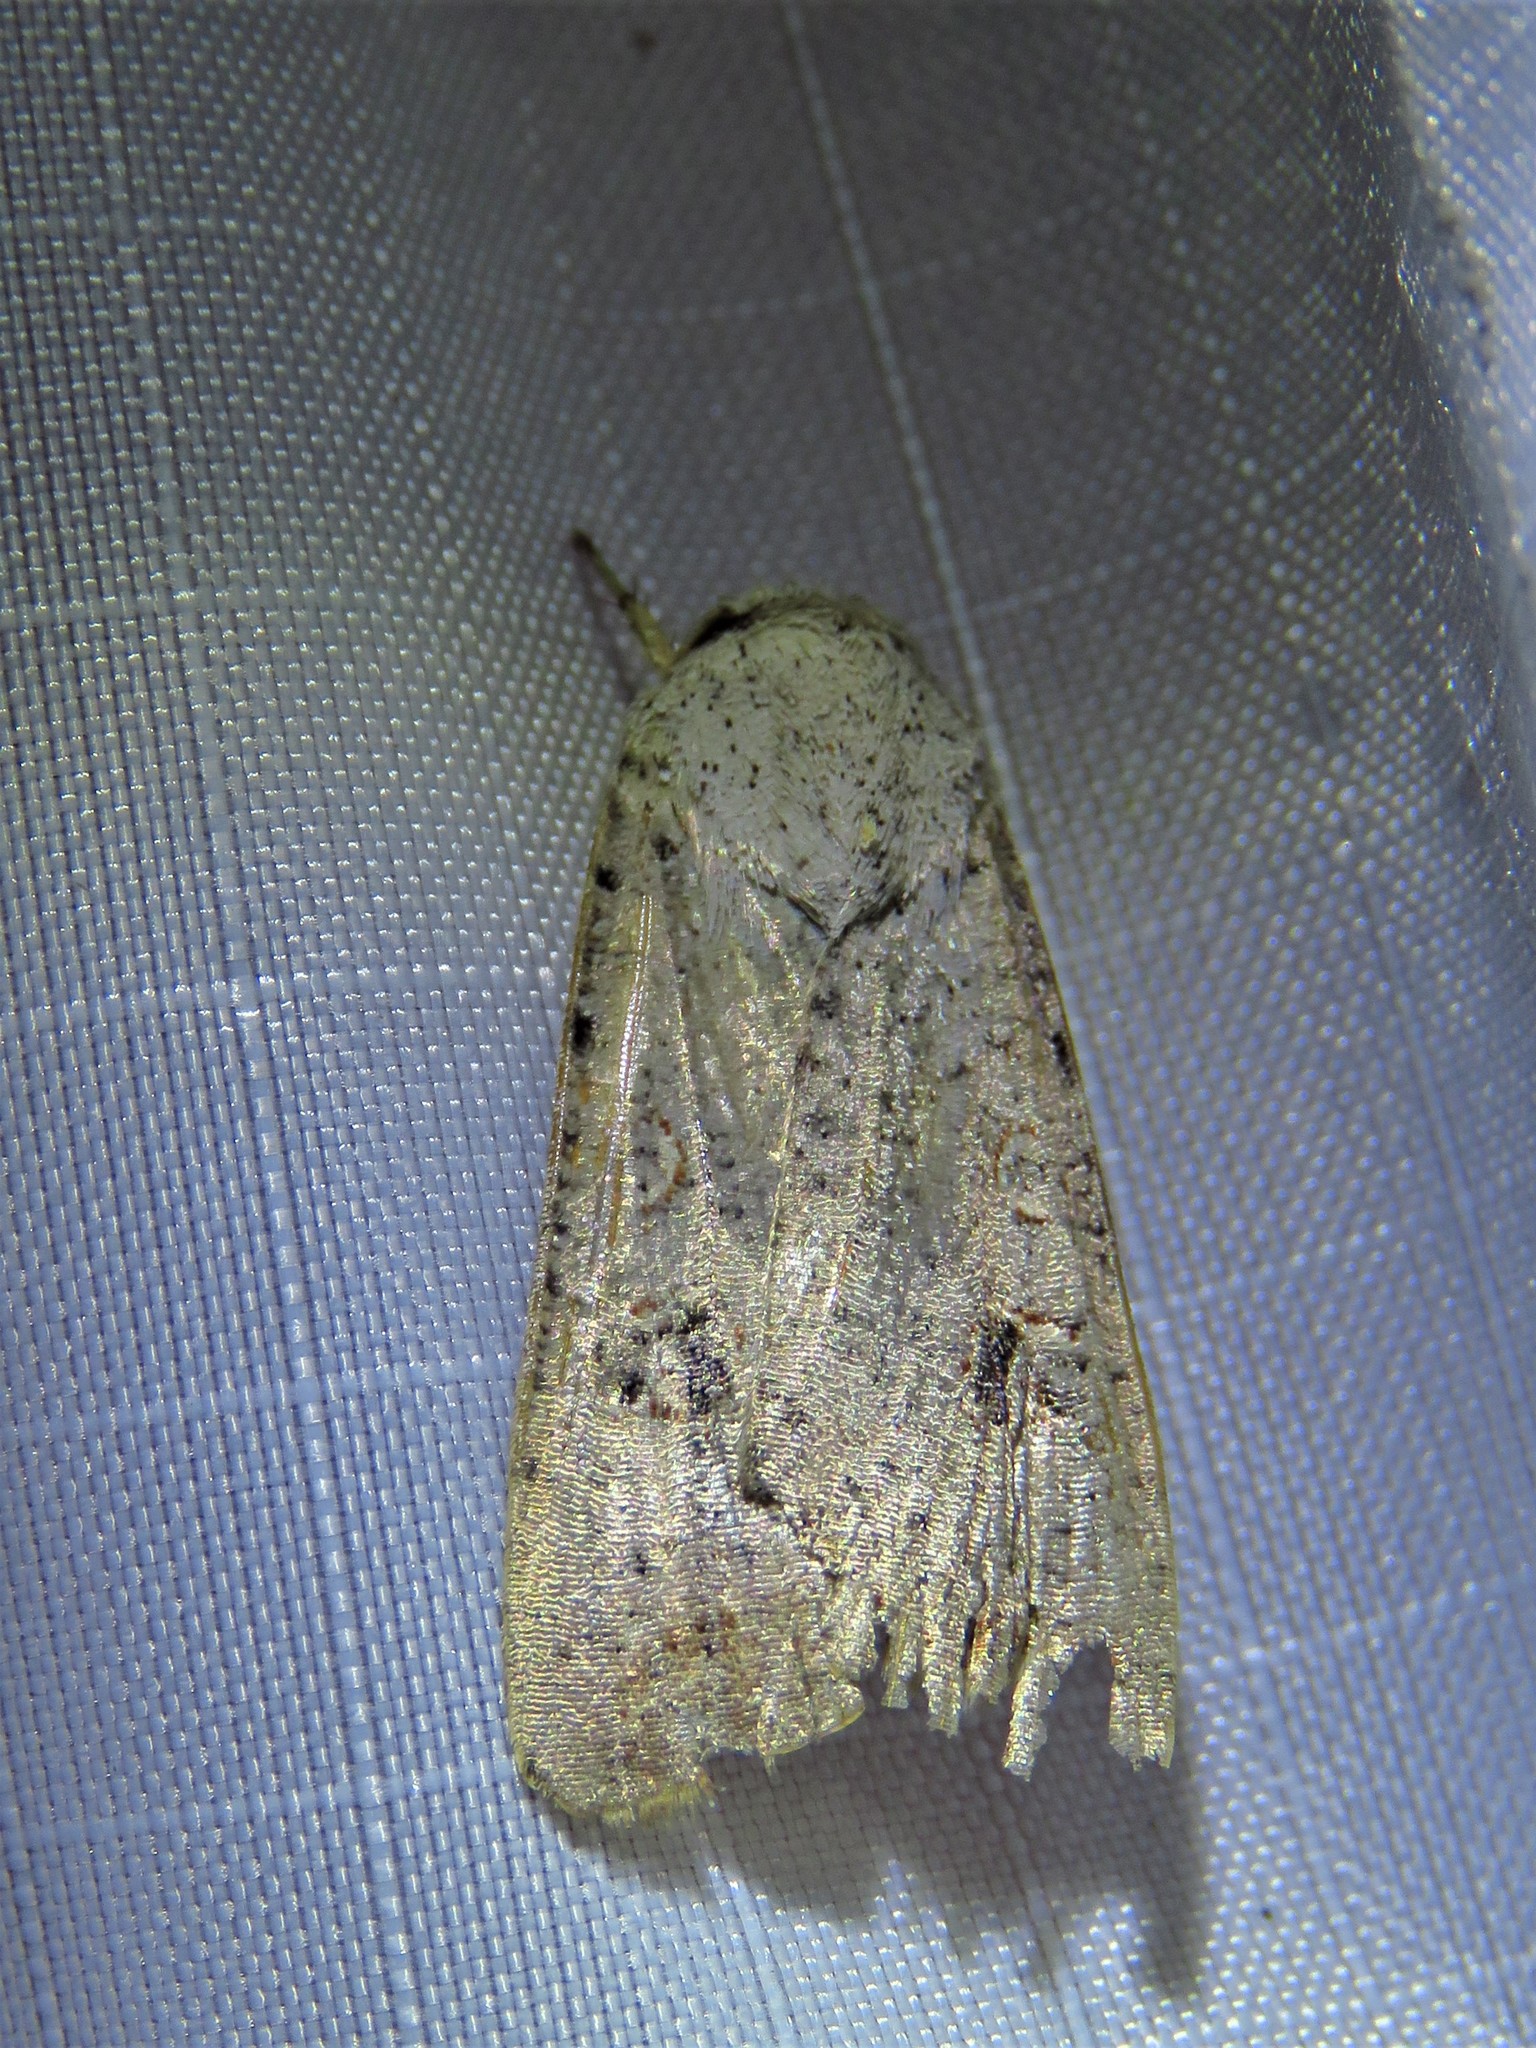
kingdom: Animalia
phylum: Arthropoda
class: Insecta
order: Lepidoptera
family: Noctuidae
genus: Anicla
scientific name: Anicla infecta
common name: Green cutworm
